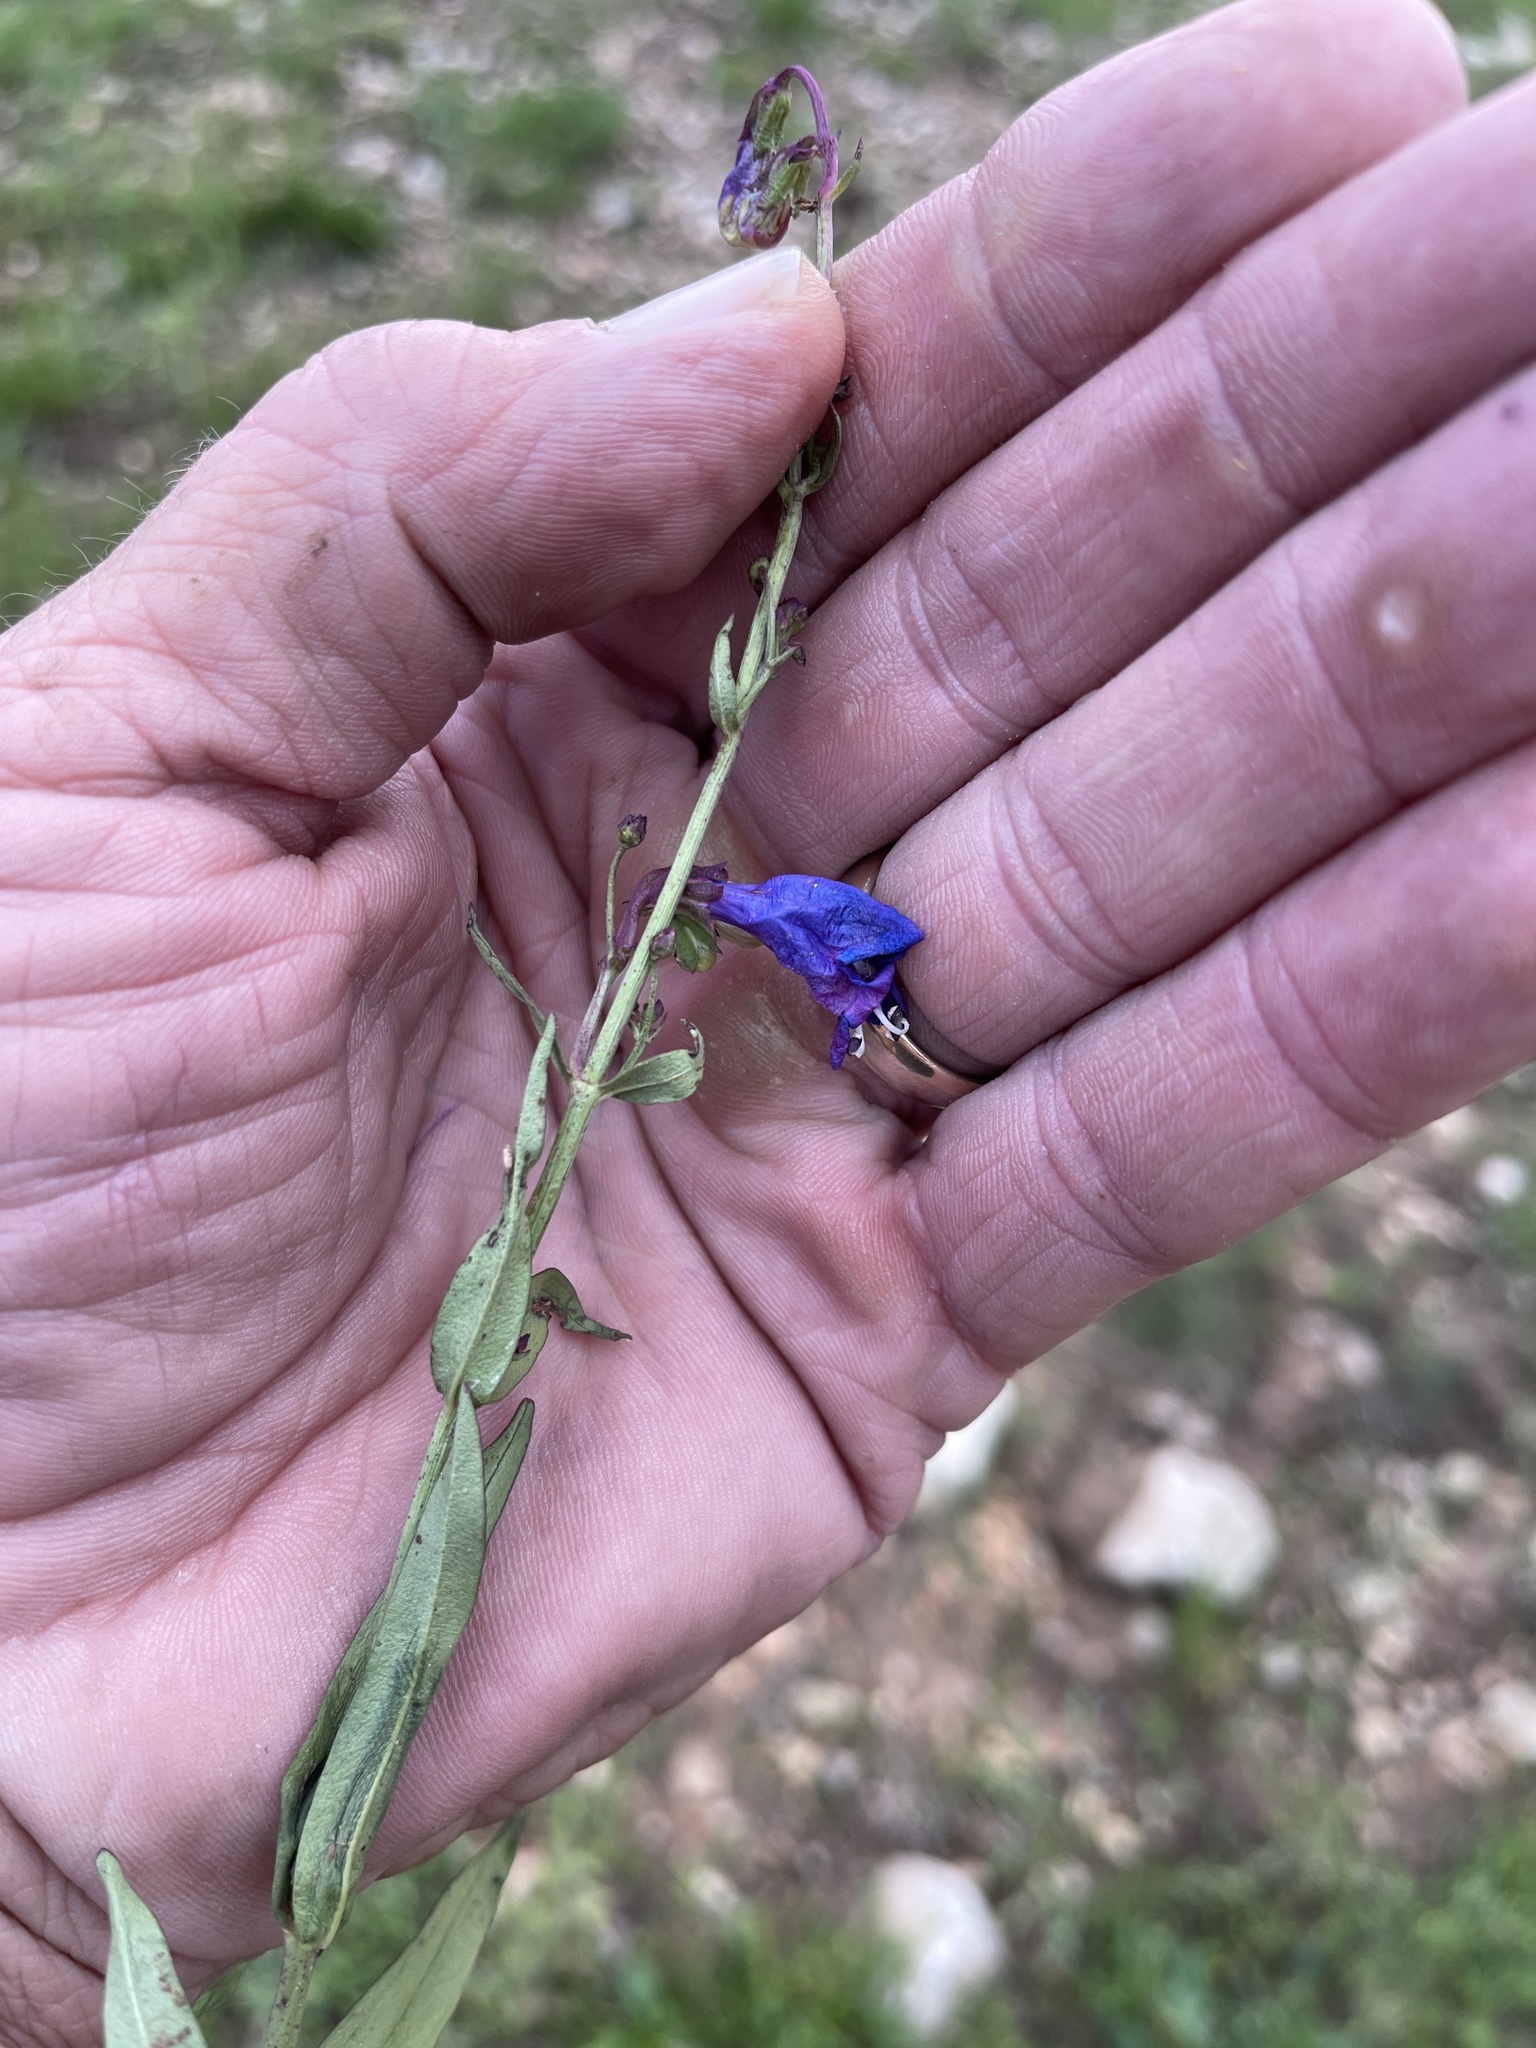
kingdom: Plantae
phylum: Tracheophyta
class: Magnoliopsida
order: Lamiales
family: Plantaginaceae
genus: Penstemon
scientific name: Penstemon neomexicanus
